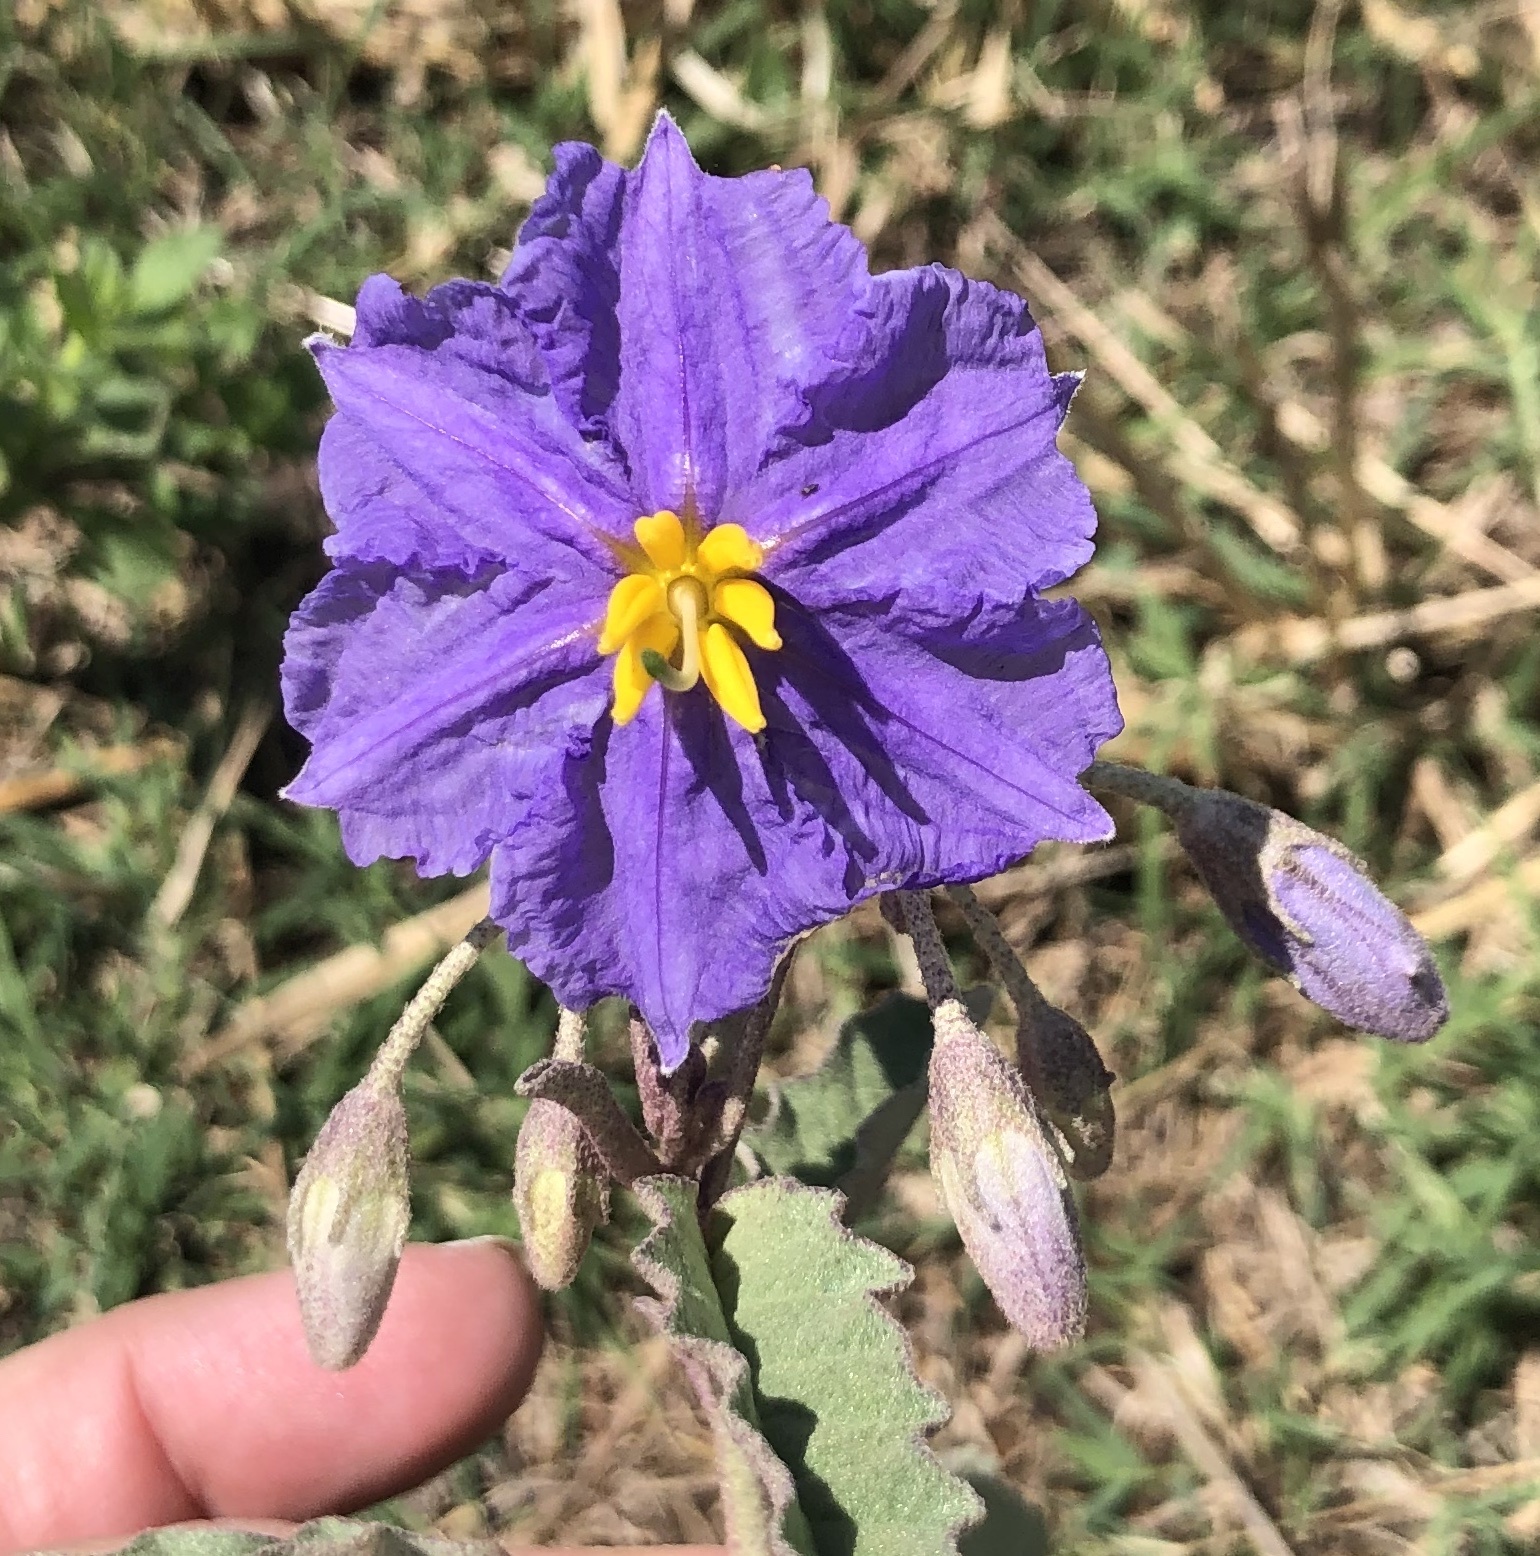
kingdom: Plantae
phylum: Tracheophyta
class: Magnoliopsida
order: Solanales
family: Solanaceae
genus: Solanum
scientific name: Solanum elaeagnifolium
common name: Silverleaf nightshade
